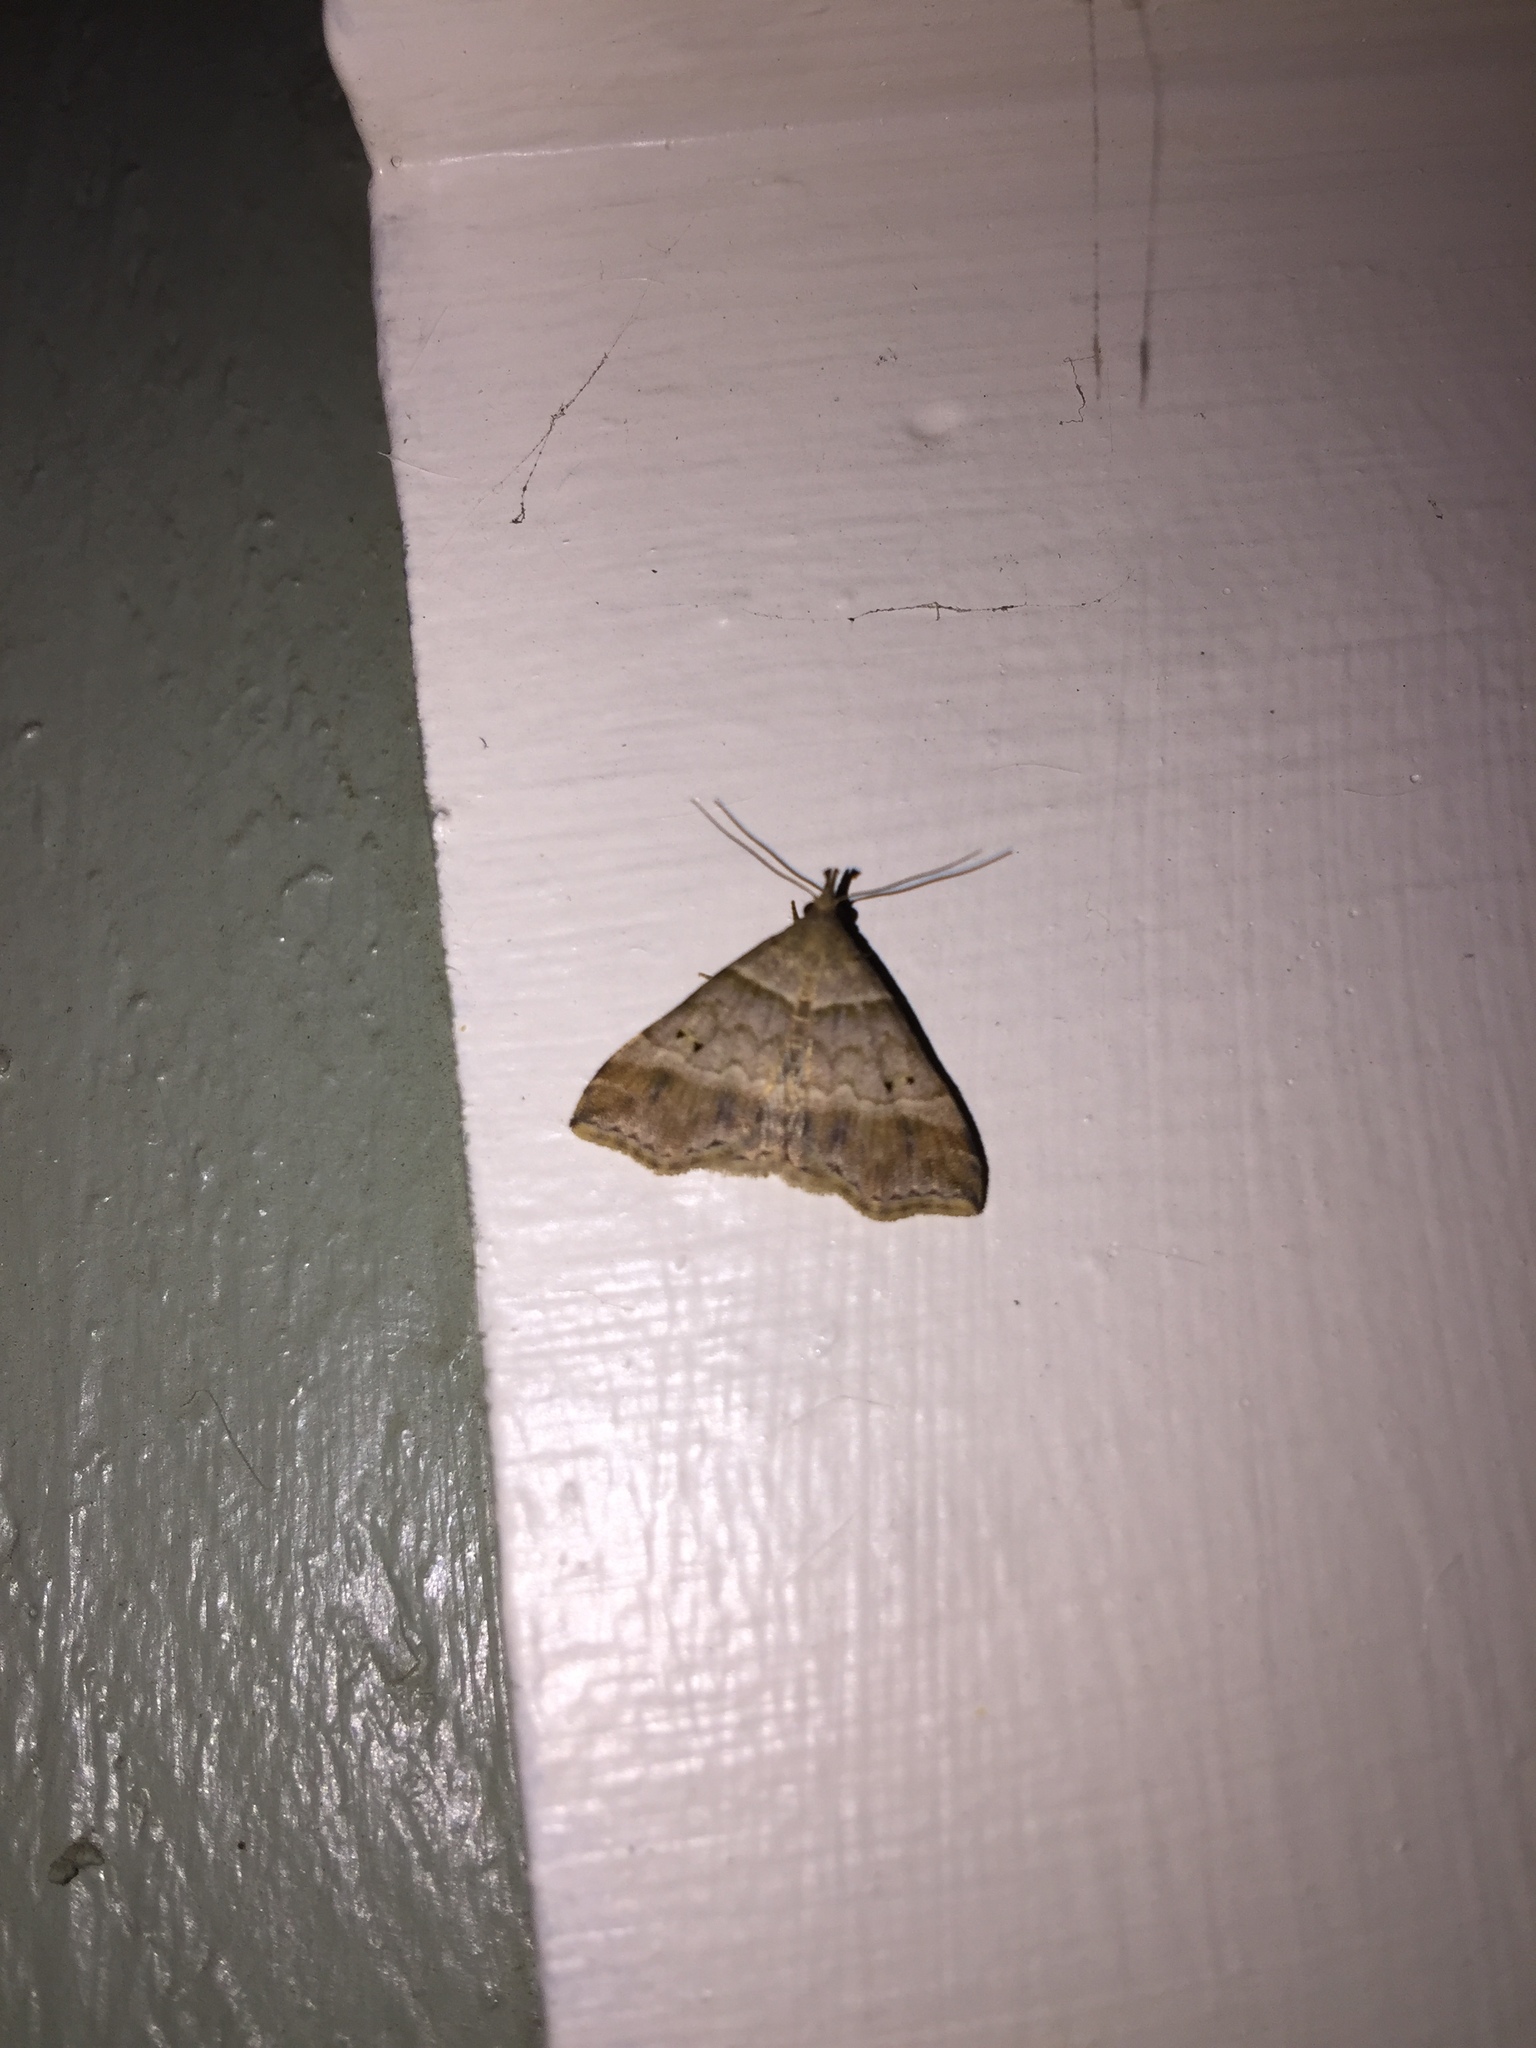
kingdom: Animalia
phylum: Arthropoda
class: Insecta
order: Lepidoptera
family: Erebidae
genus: Phaeolita
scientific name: Phaeolita pyramusalis
